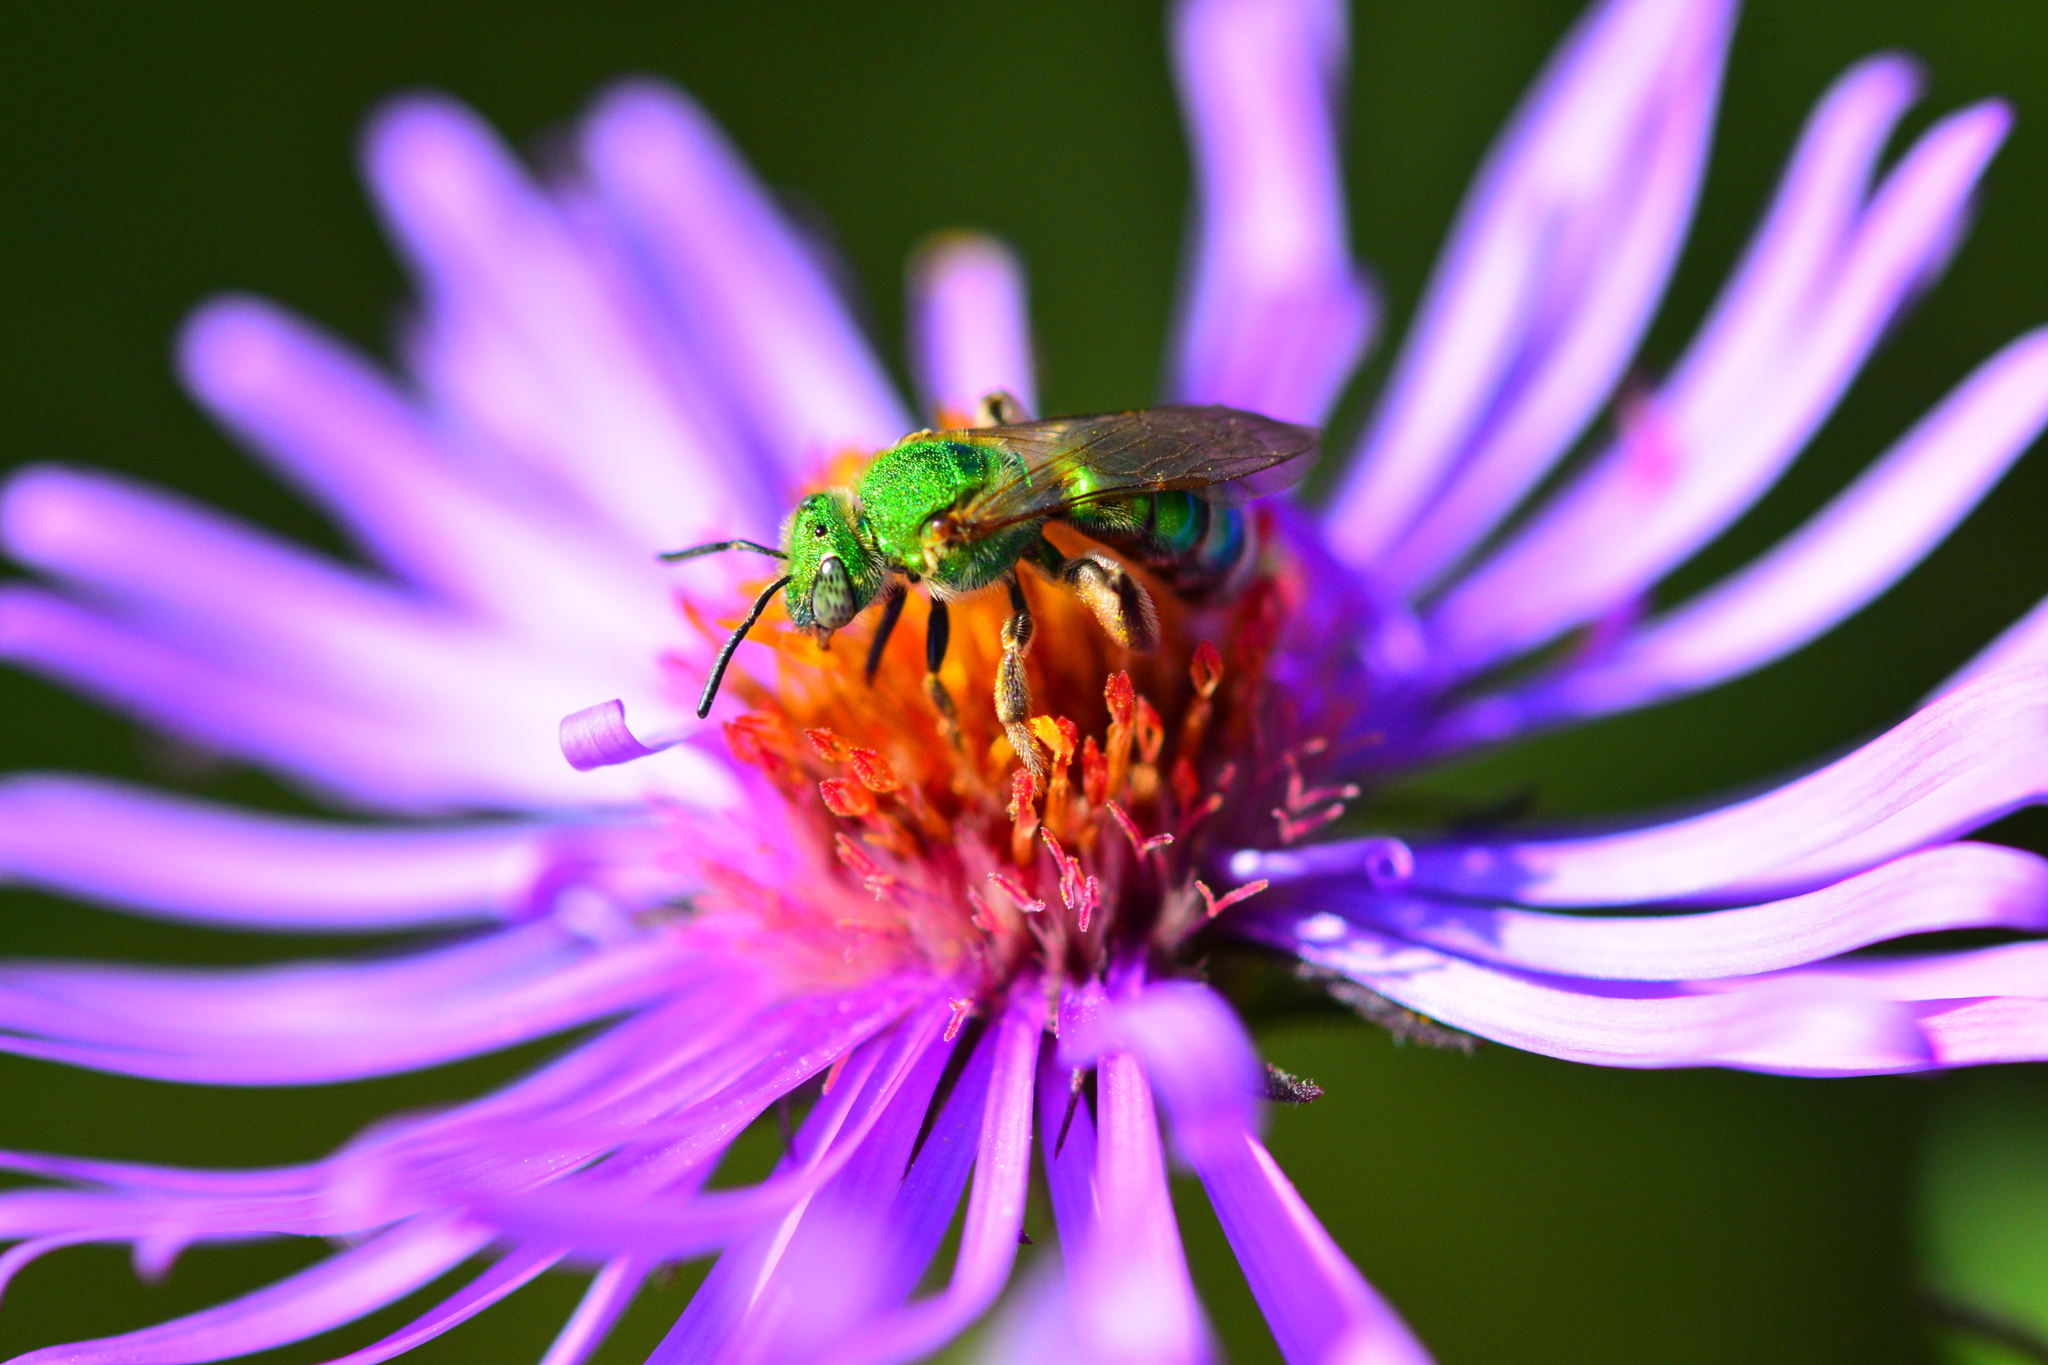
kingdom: Animalia
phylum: Arthropoda
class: Insecta
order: Hymenoptera
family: Halictidae
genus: Agapostemon
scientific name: Agapostemon sericeus
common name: Silky striped sweat bee
